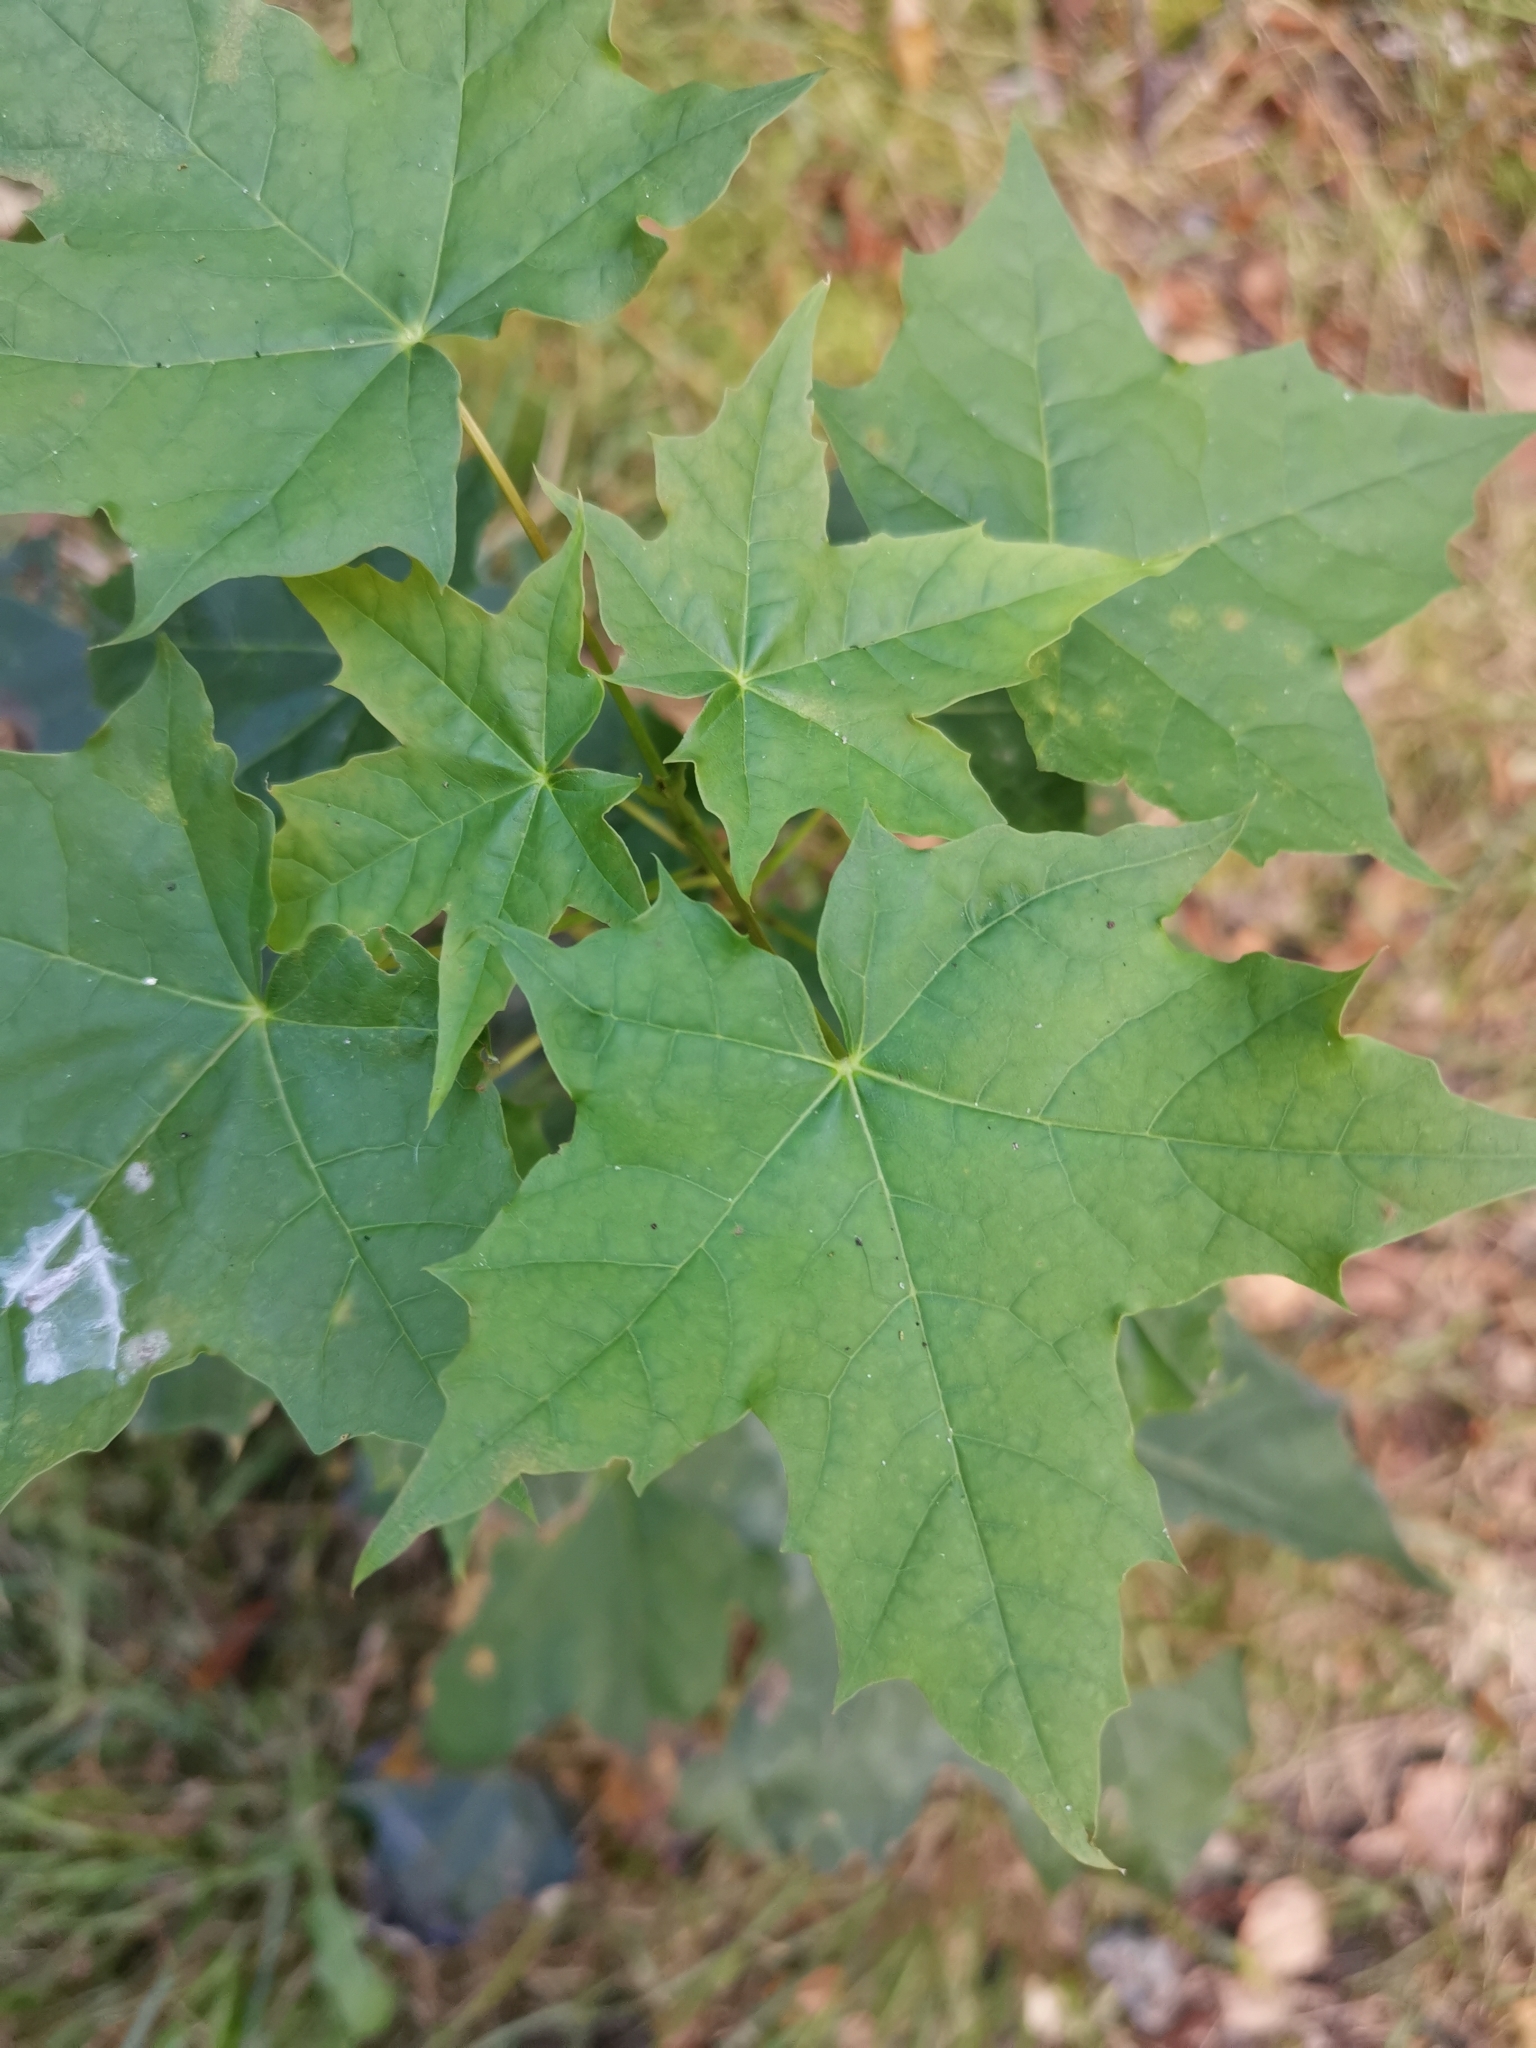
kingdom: Plantae
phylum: Tracheophyta
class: Magnoliopsida
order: Sapindales
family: Sapindaceae
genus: Acer
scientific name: Acer platanoides
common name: Norway maple
